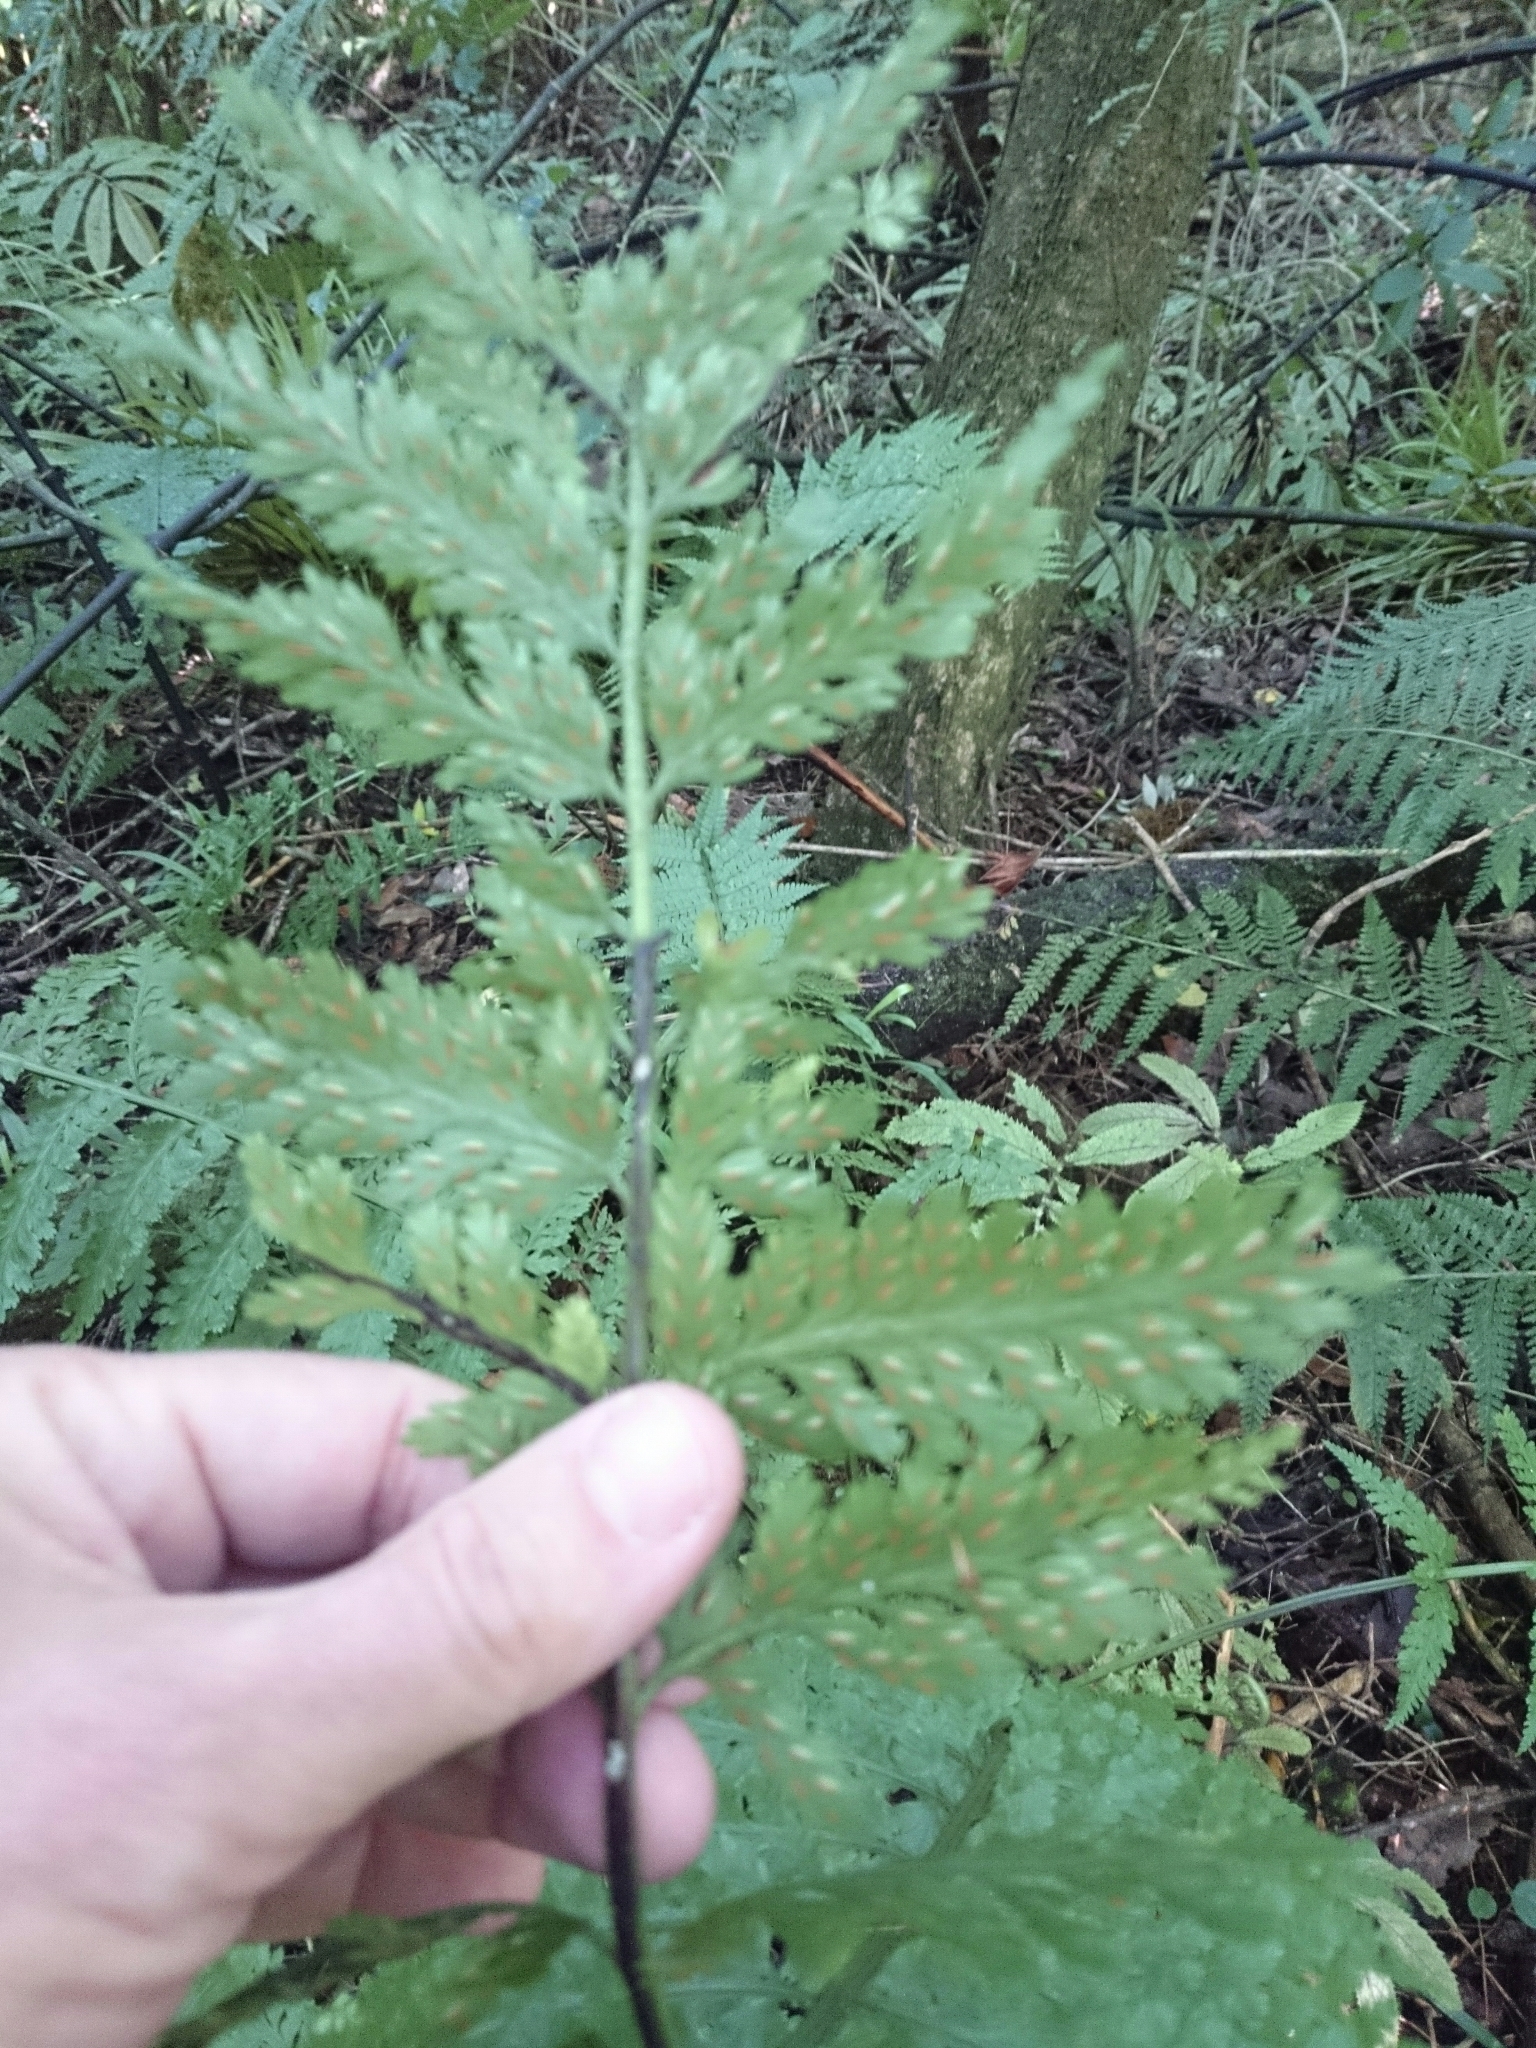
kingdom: Plantae
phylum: Tracheophyta
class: Polypodiopsida
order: Polypodiales
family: Aspleniaceae
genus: Asplenium
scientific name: Asplenium bulbiferum
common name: Mother fern
